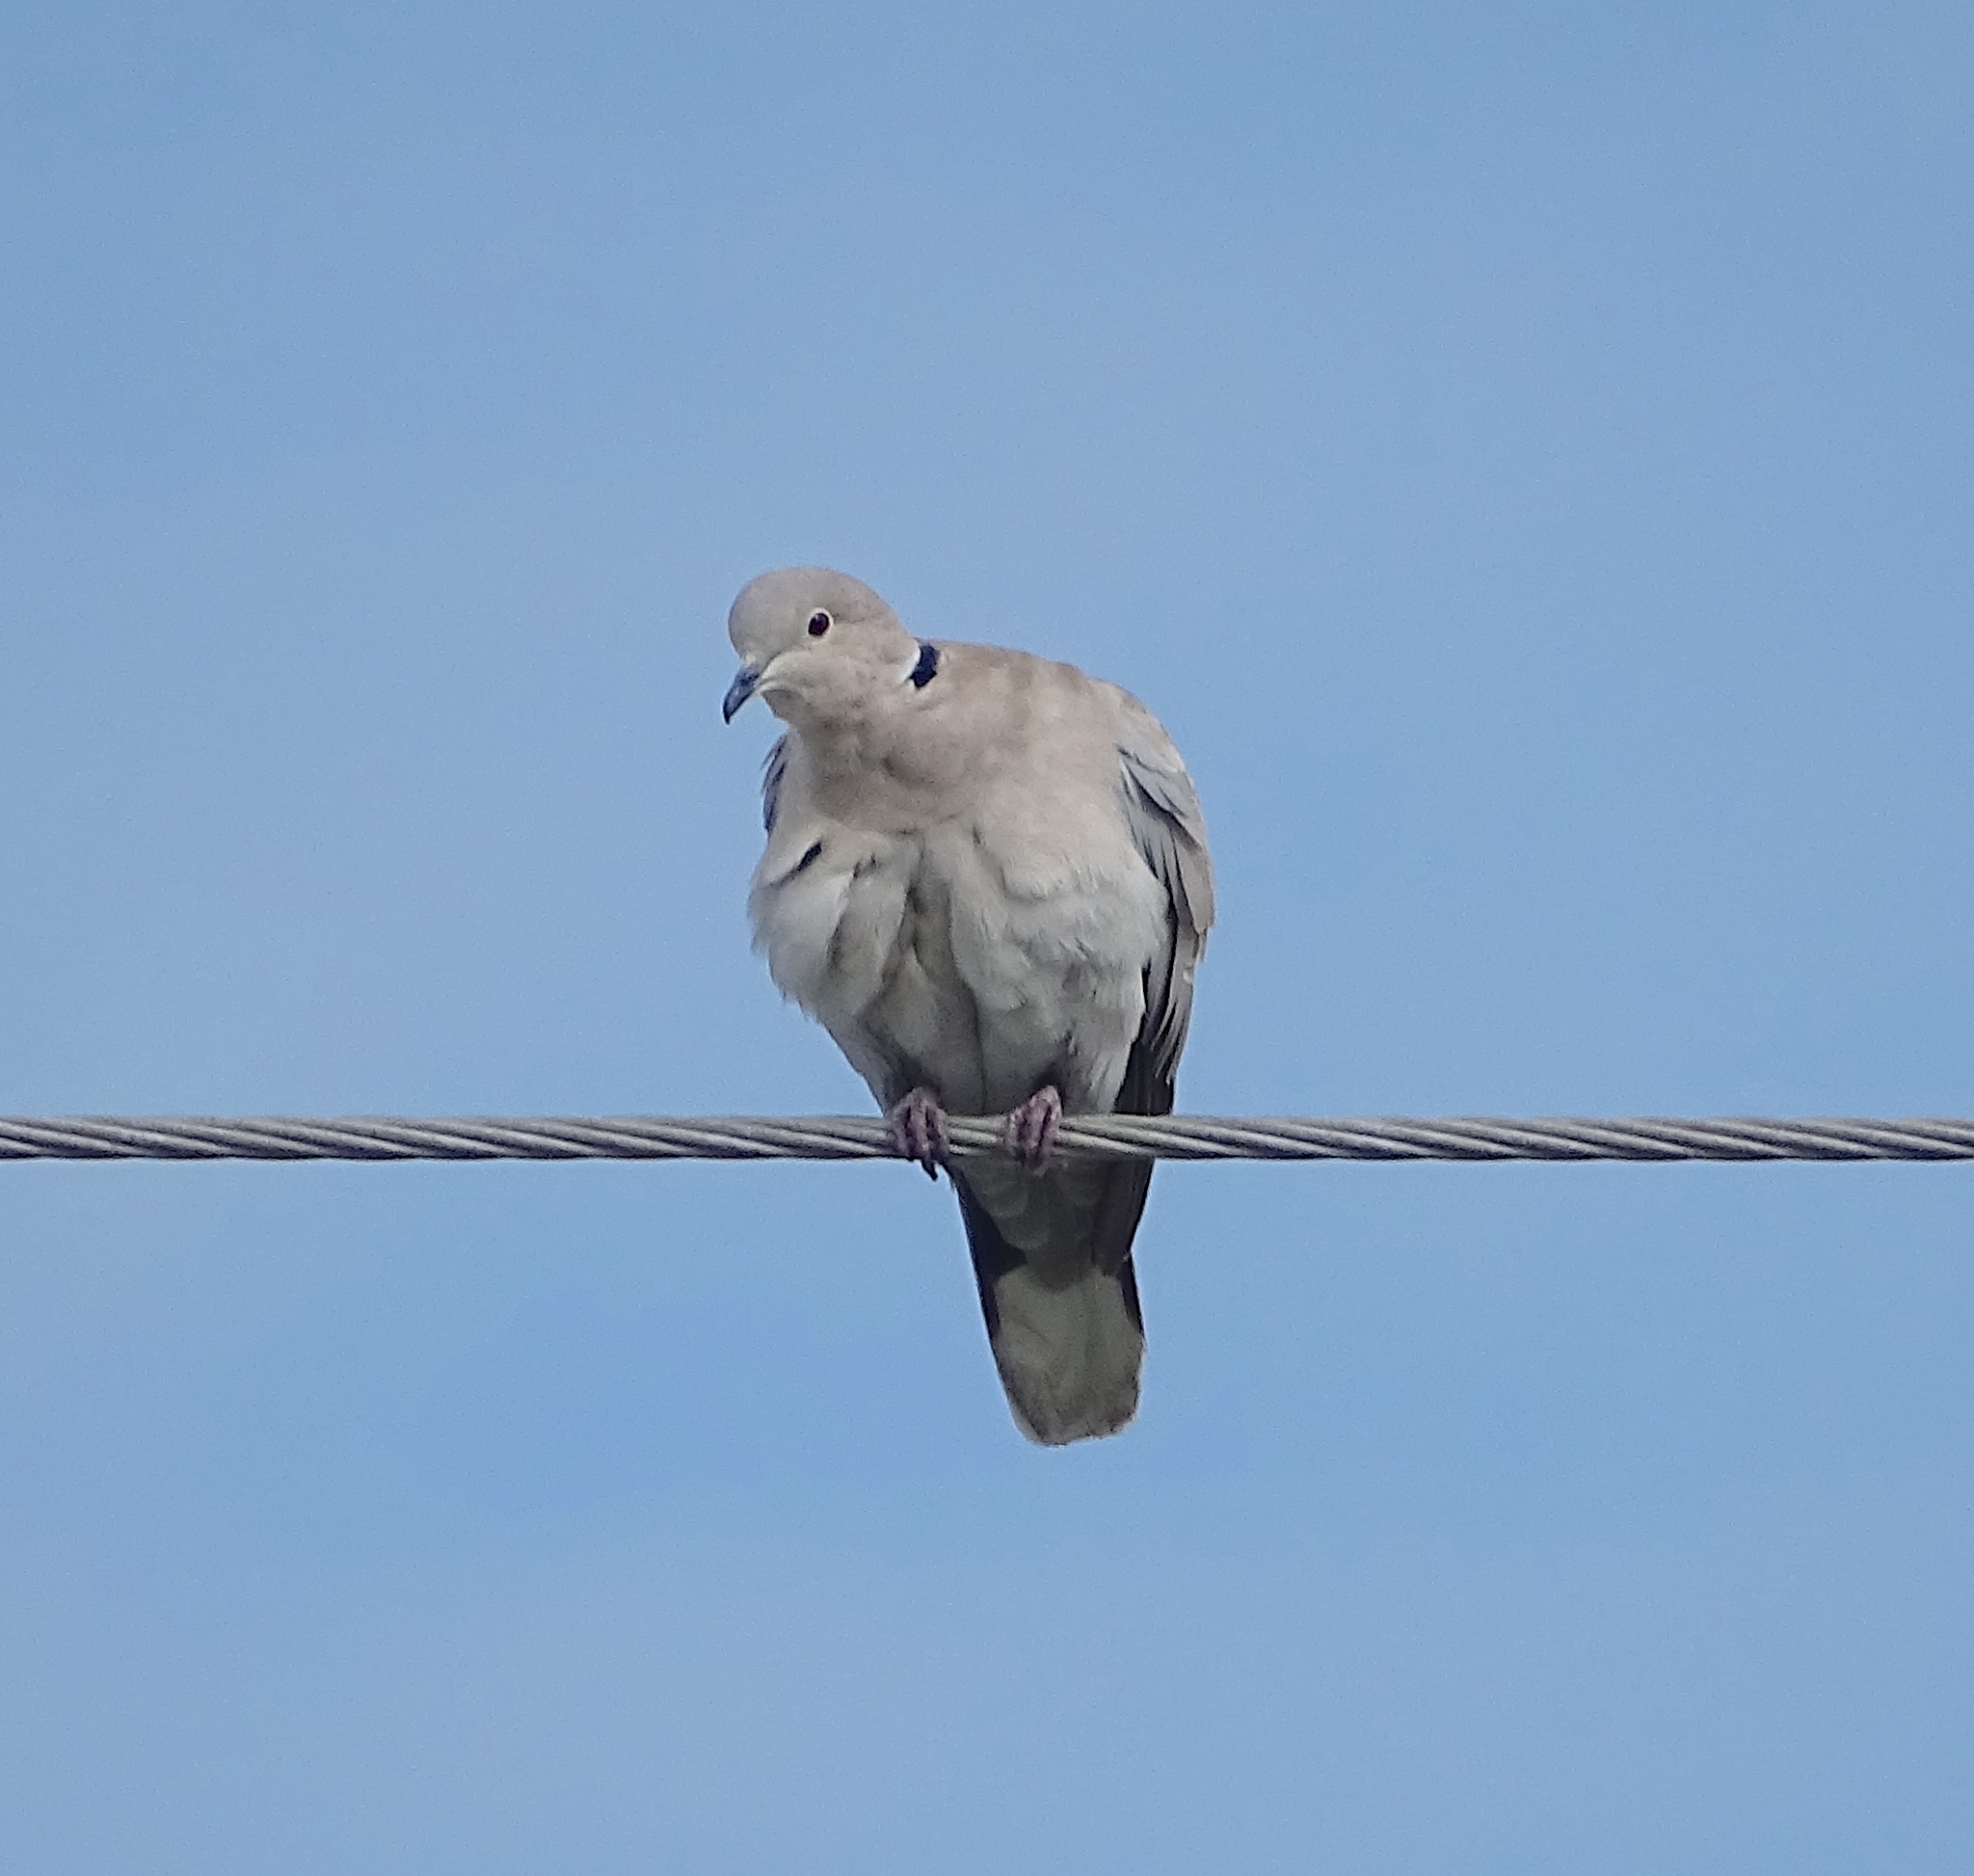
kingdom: Animalia
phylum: Chordata
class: Aves
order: Columbiformes
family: Columbidae
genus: Streptopelia
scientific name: Streptopelia decaocto
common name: Eurasian collared dove
